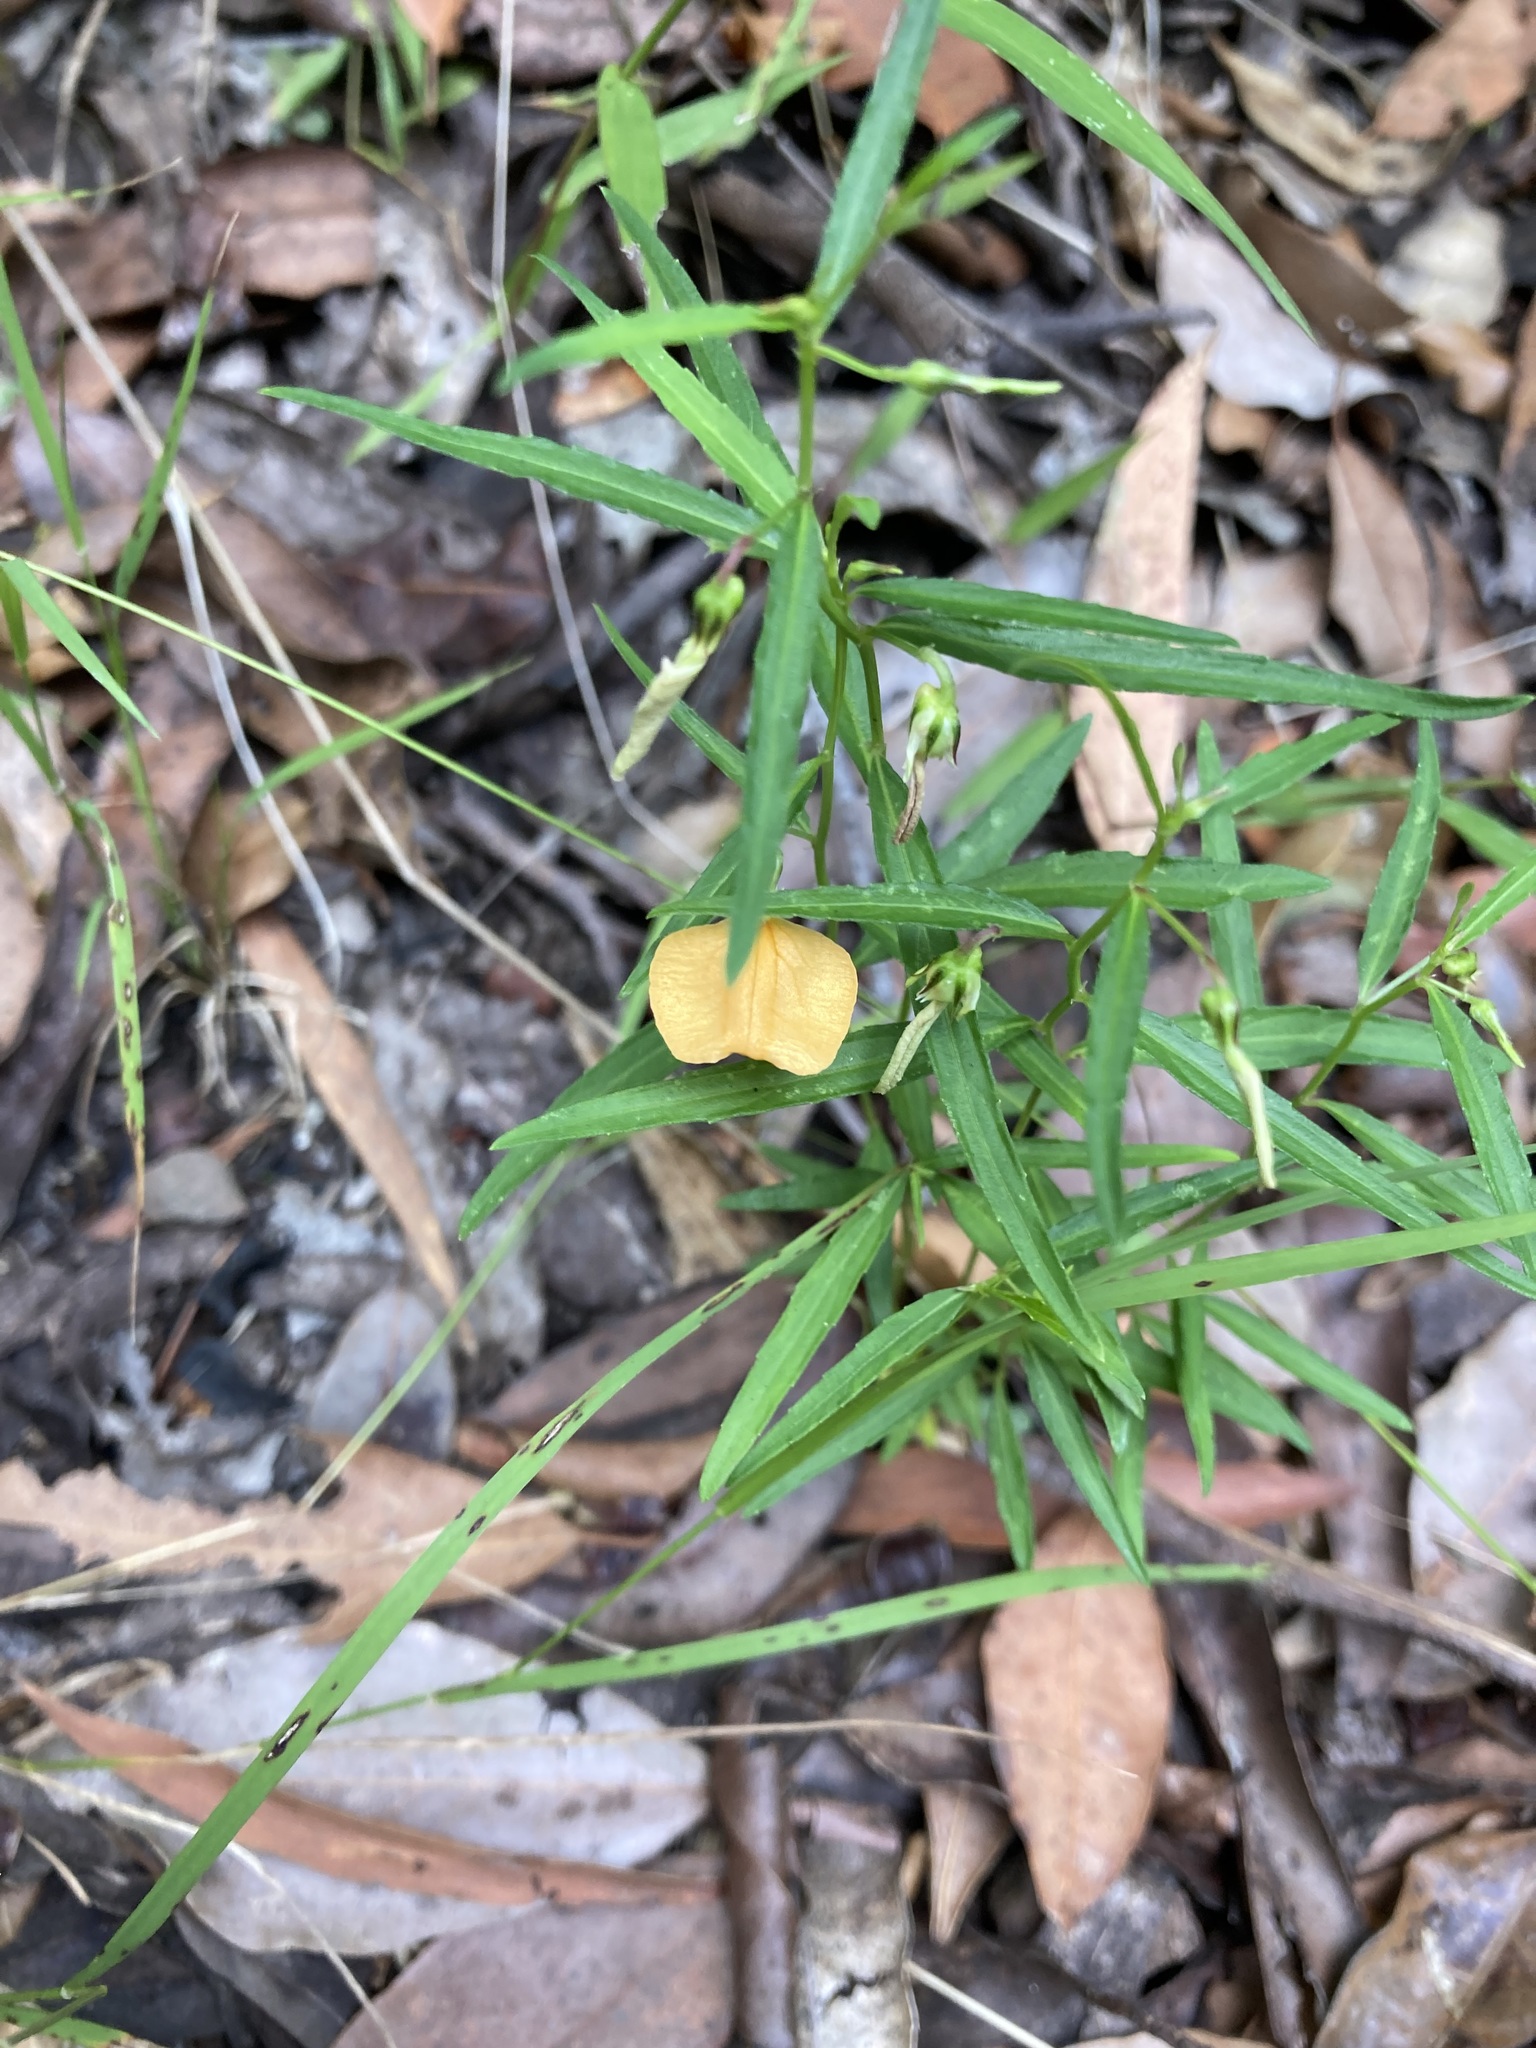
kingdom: Plantae
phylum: Tracheophyta
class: Magnoliopsida
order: Malpighiales
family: Violaceae
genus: Pigea
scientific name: Pigea stellarioides
